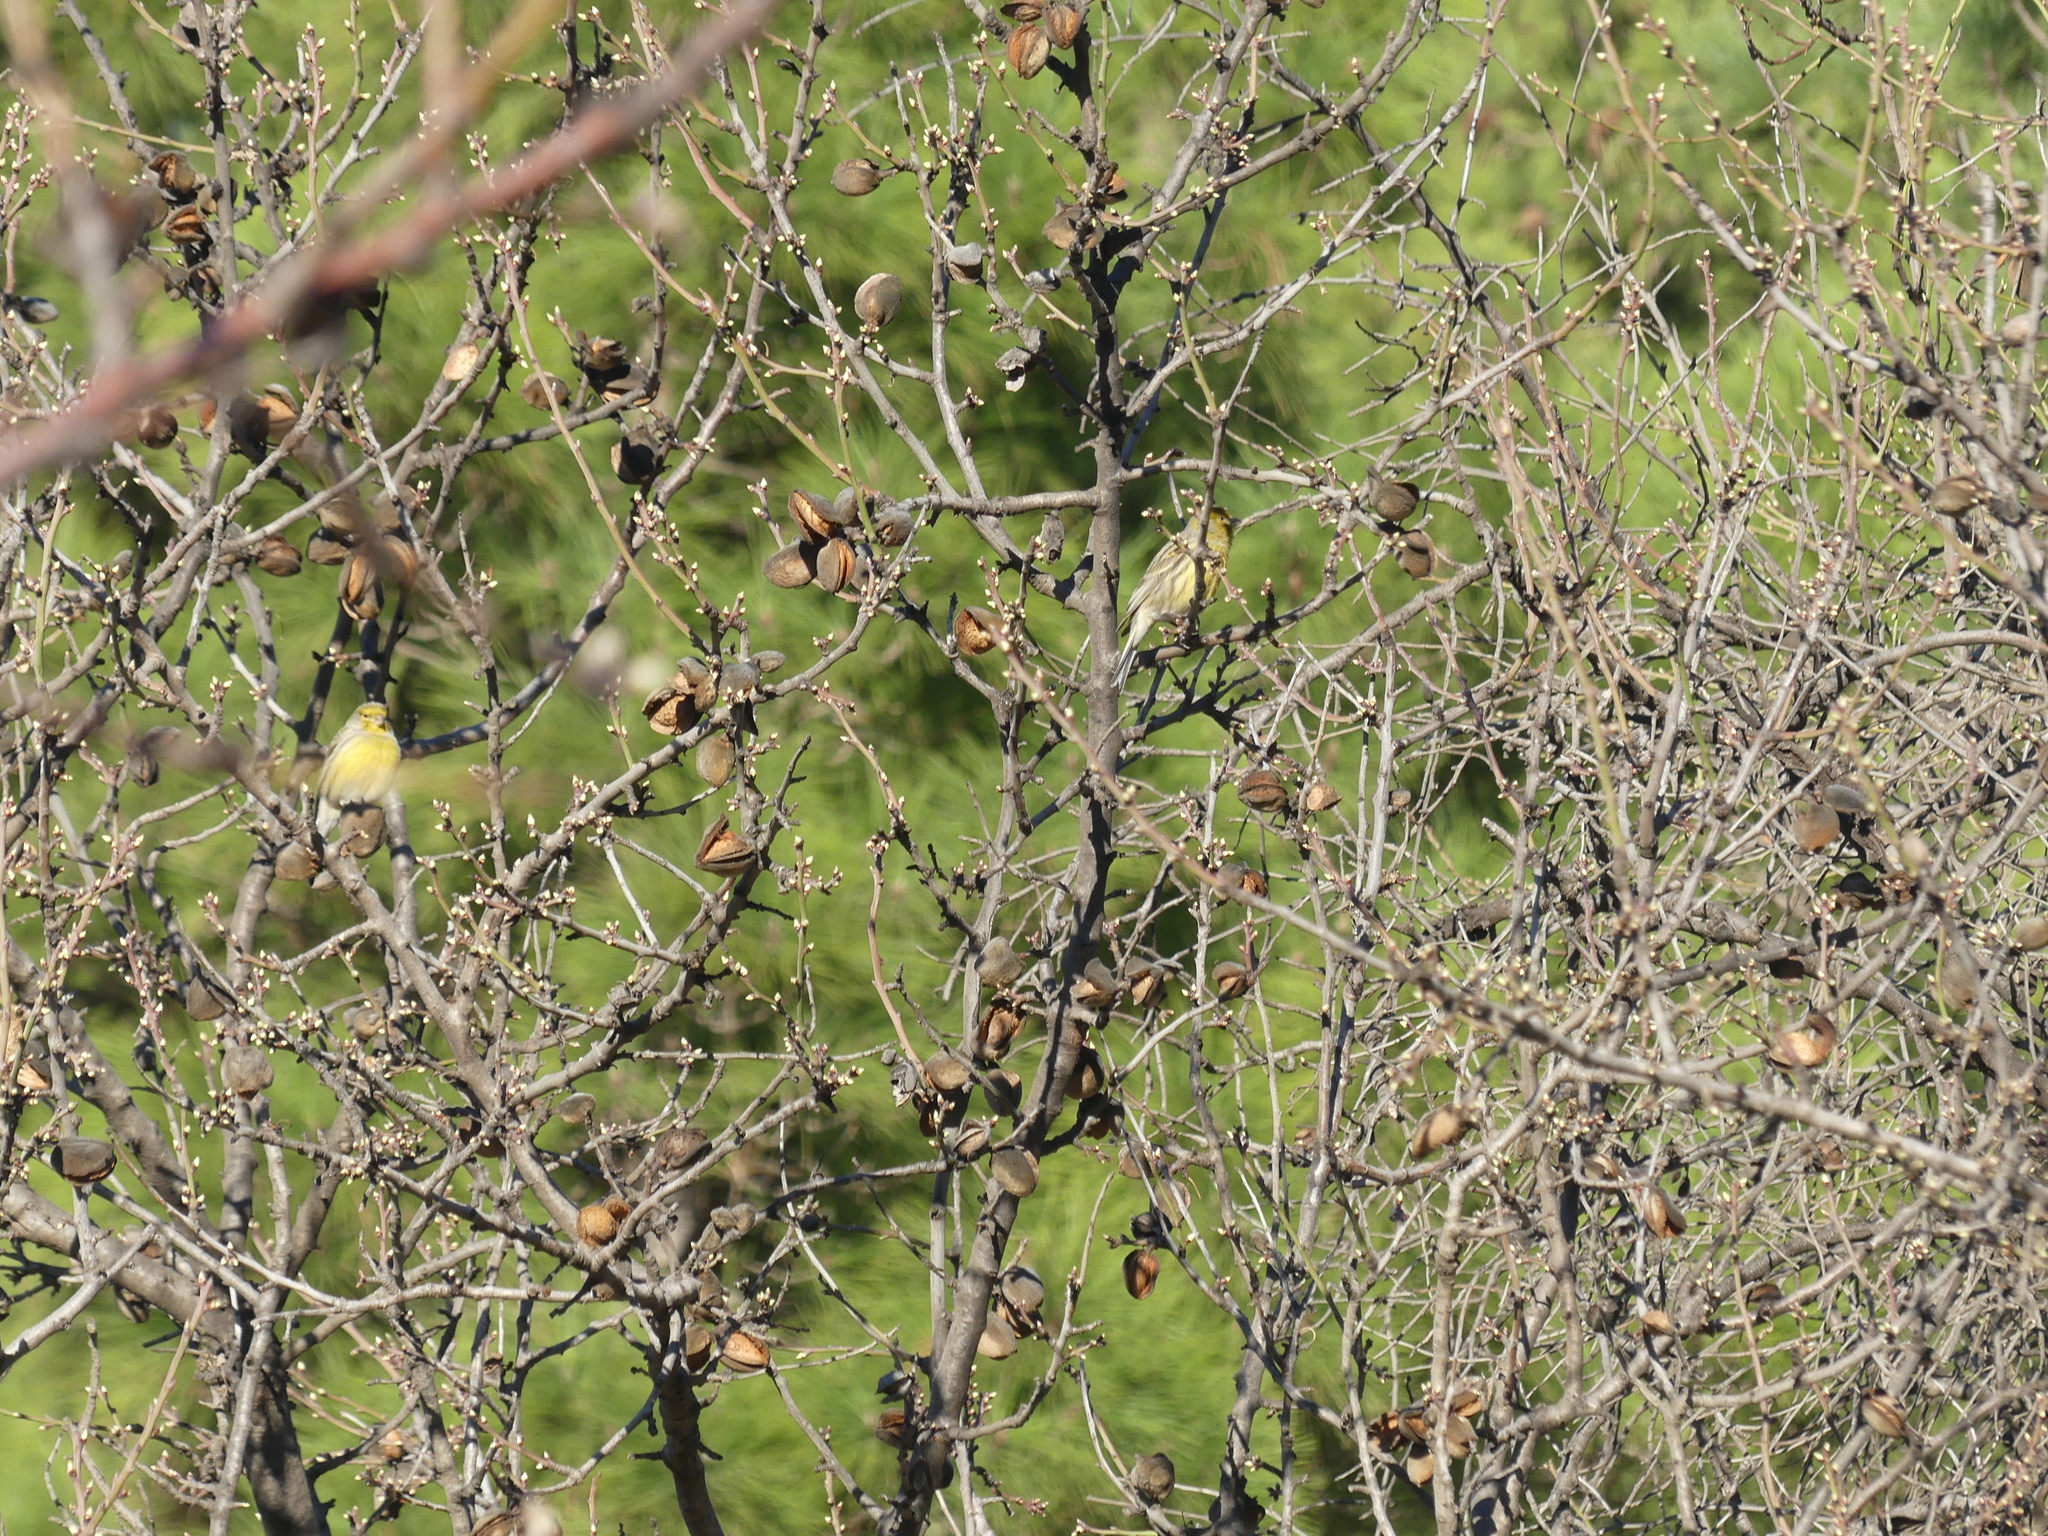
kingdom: Animalia
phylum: Chordata
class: Aves
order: Passeriformes
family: Fringillidae
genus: Serinus
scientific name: Serinus canaria
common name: Atlantic canary
